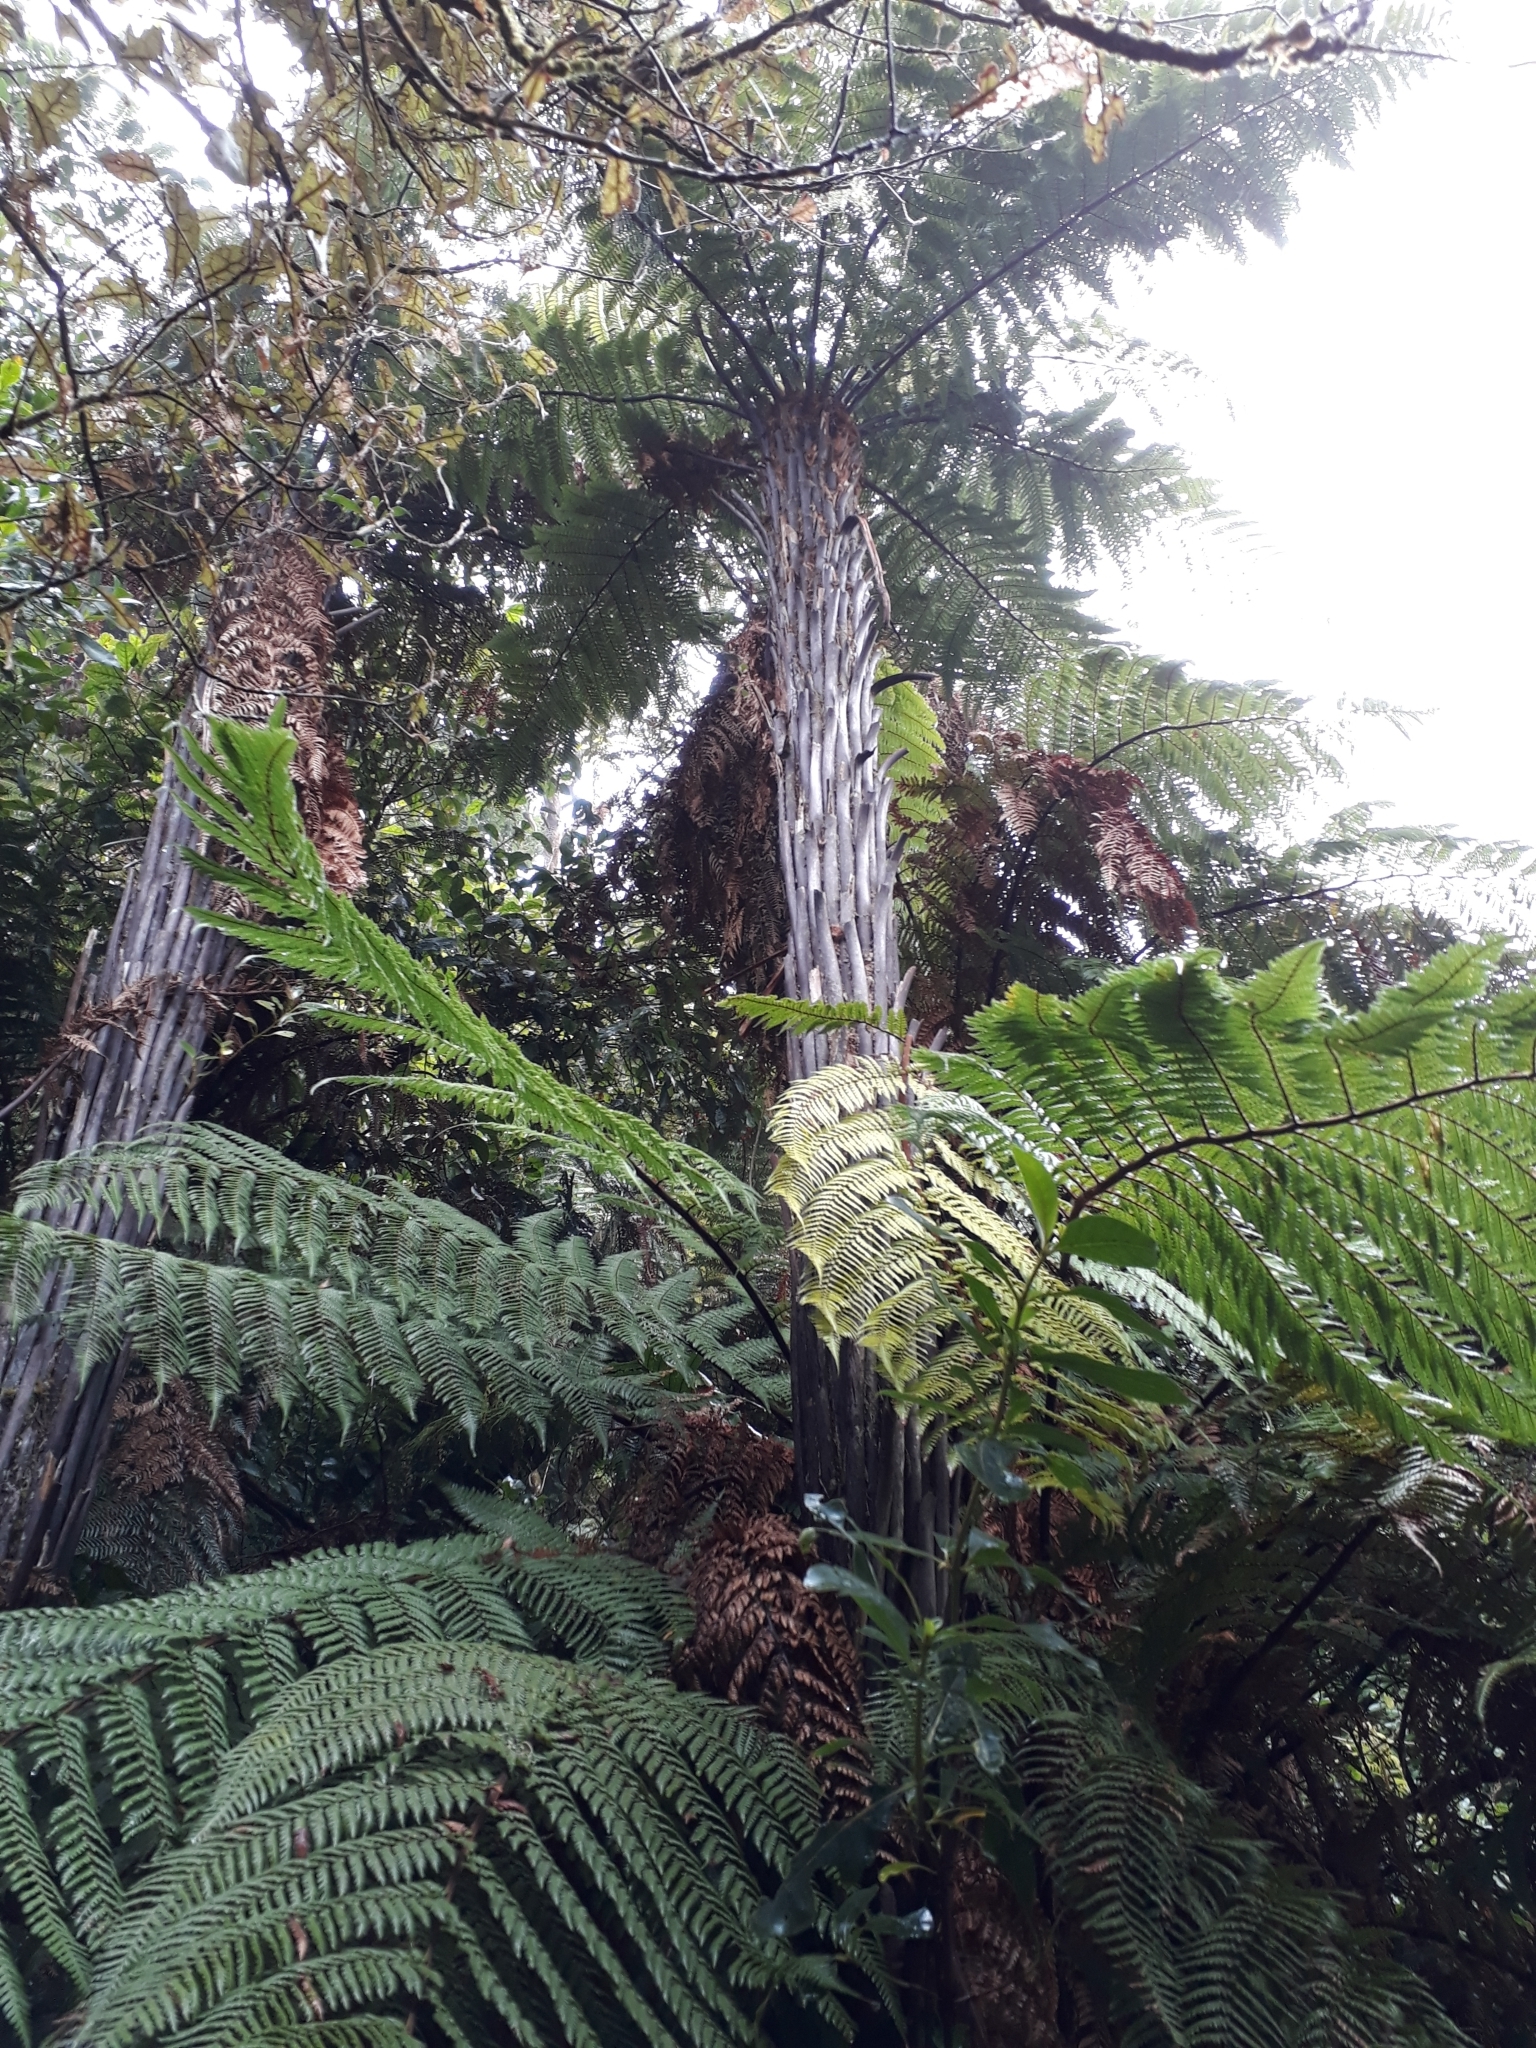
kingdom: Plantae
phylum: Tracheophyta
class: Polypodiopsida
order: Cyatheales
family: Dicksoniaceae
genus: Dicksonia
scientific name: Dicksonia squarrosa
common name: Hard treefern
